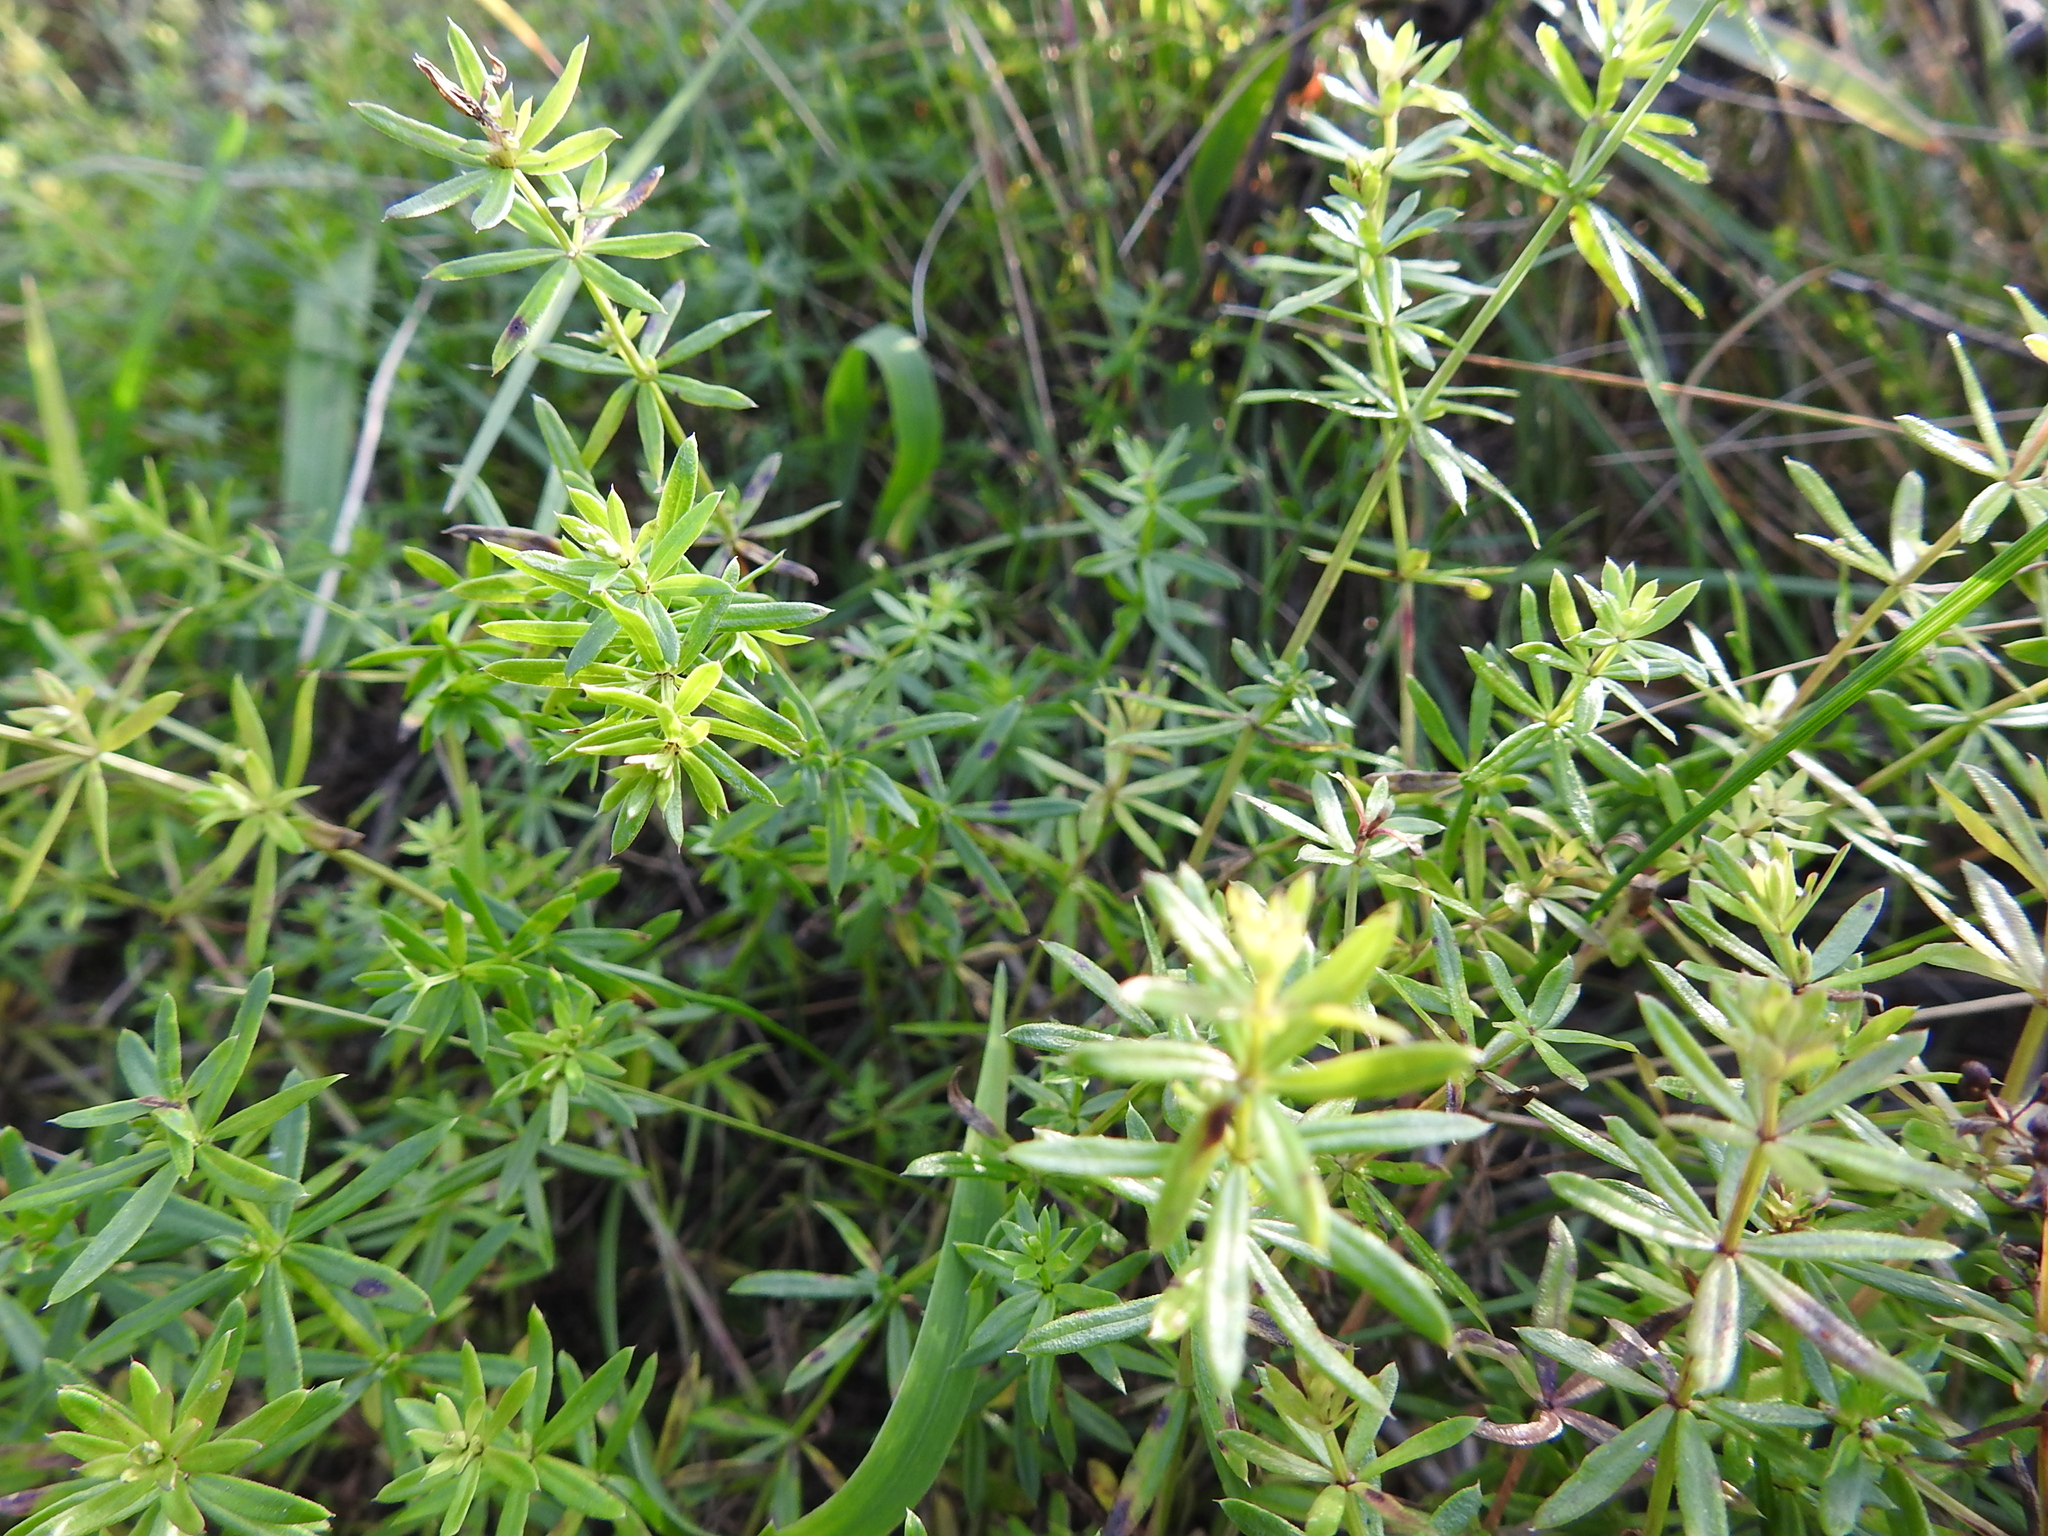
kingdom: Plantae
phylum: Tracheophyta
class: Magnoliopsida
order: Gentianales
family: Rubiaceae
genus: Galium
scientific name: Galium mollugo
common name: Hedge bedstraw
